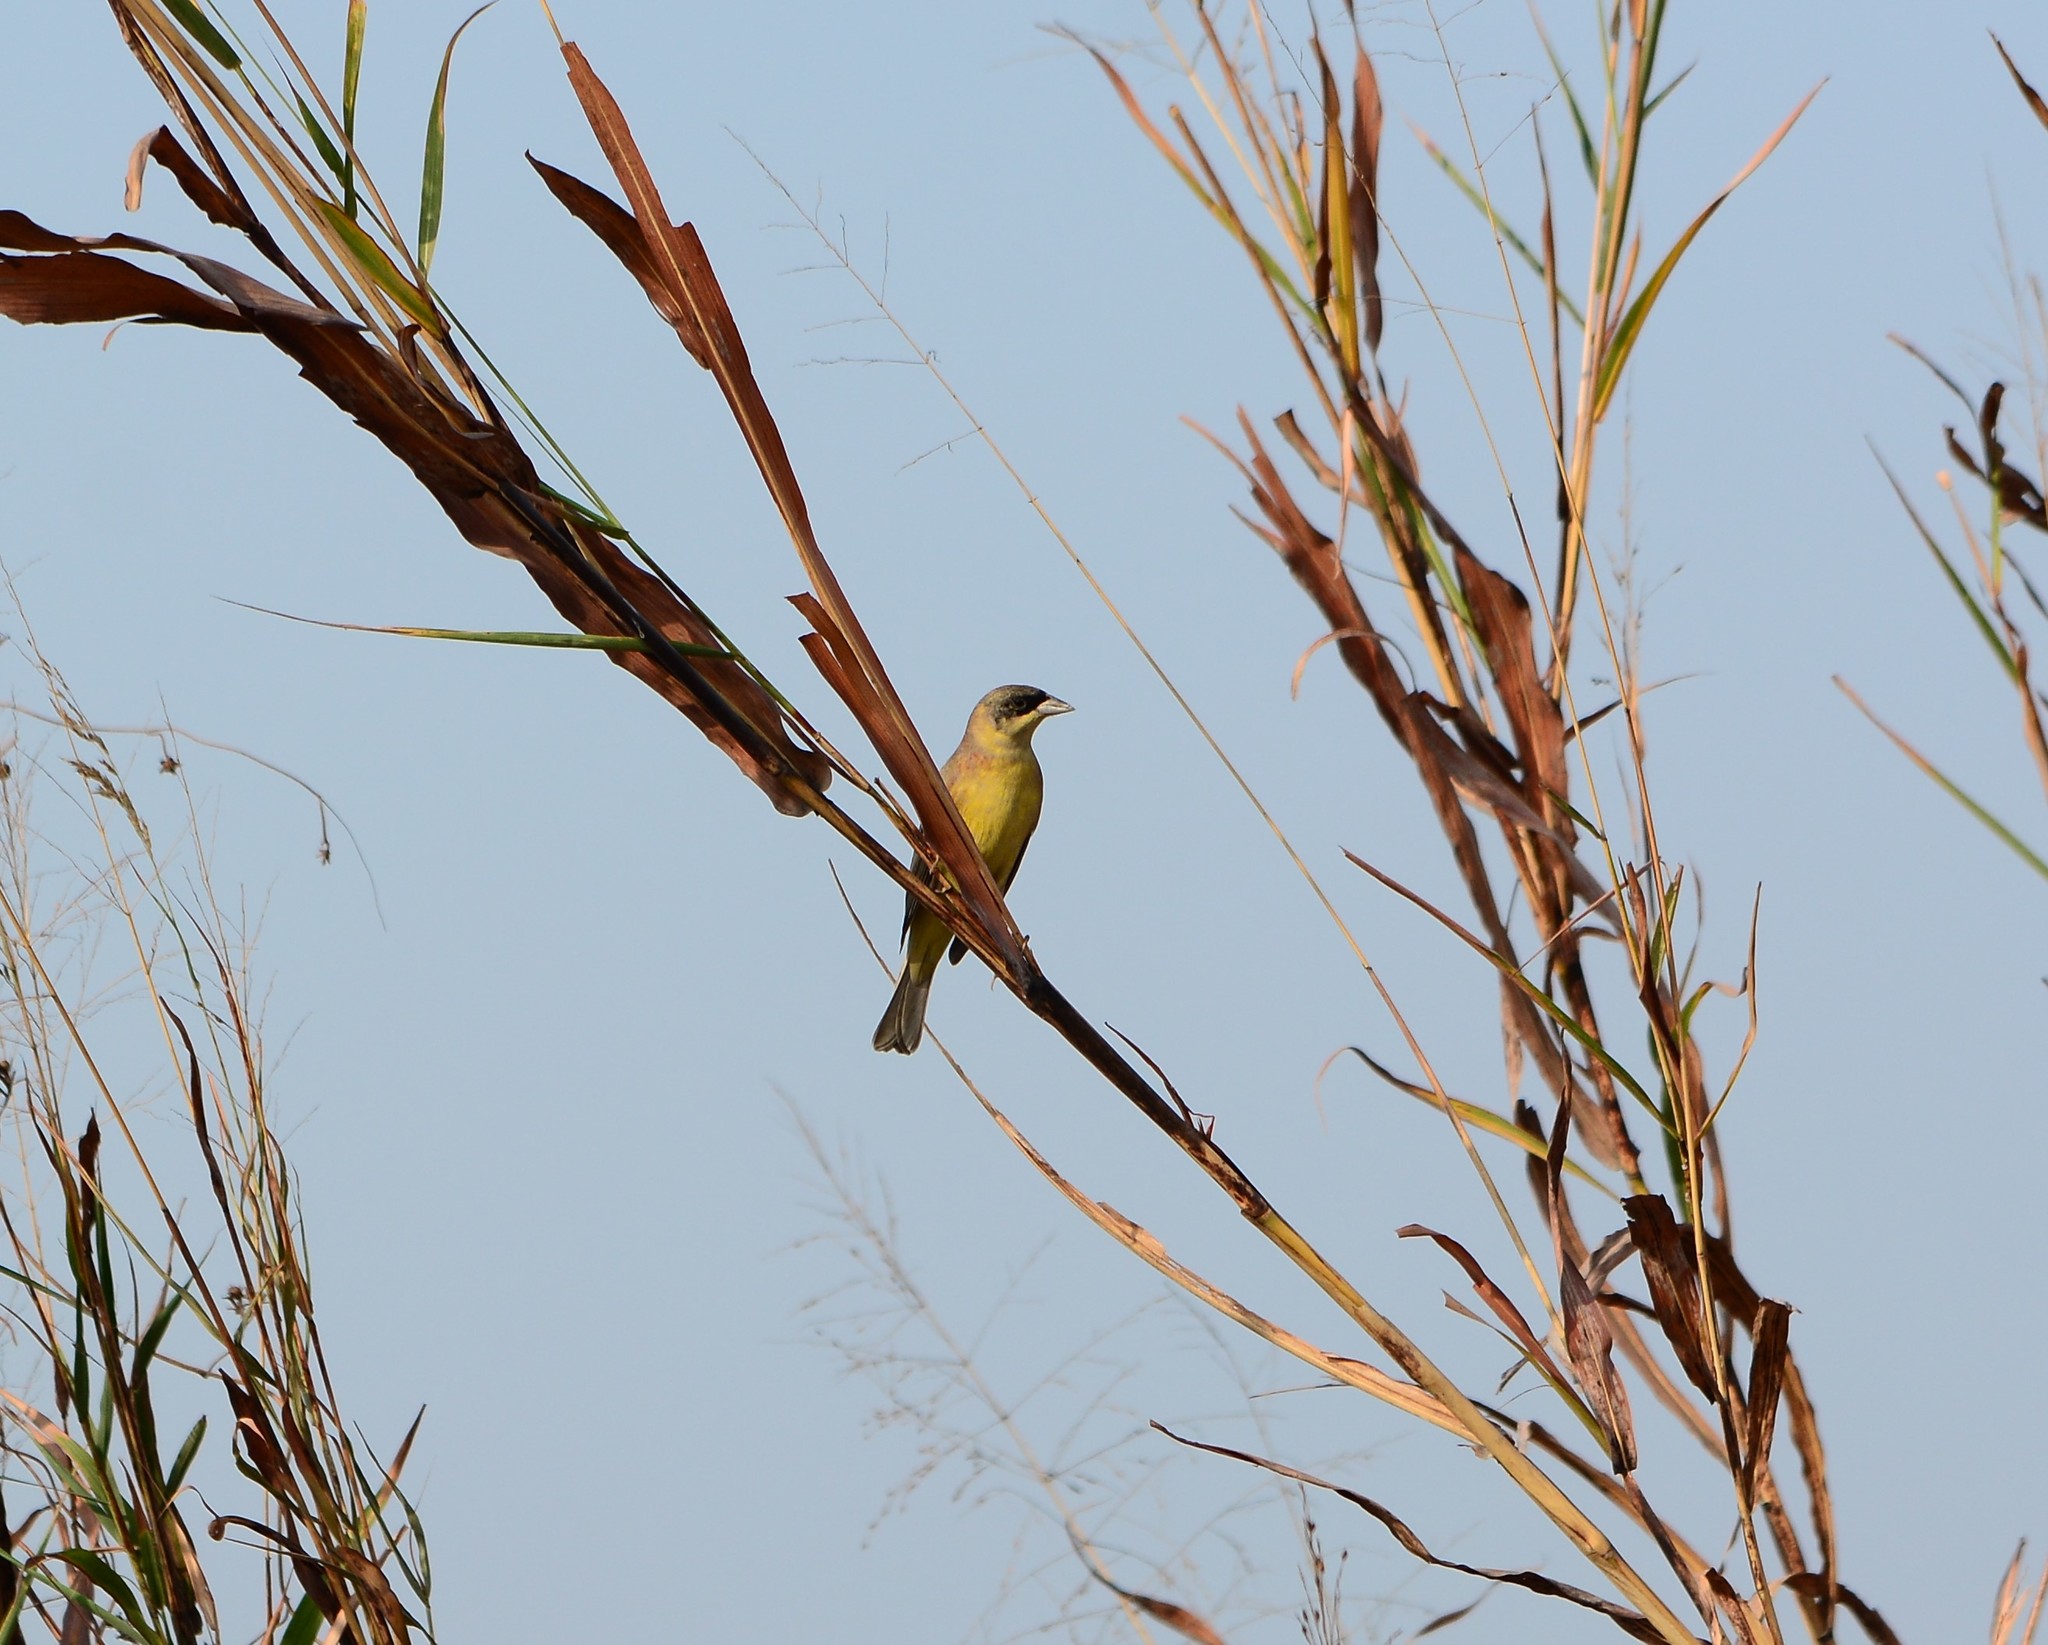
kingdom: Animalia
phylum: Chordata
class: Aves
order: Passeriformes
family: Emberizidae
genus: Emberiza
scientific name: Emberiza melanocephala
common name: Black-headed bunting
